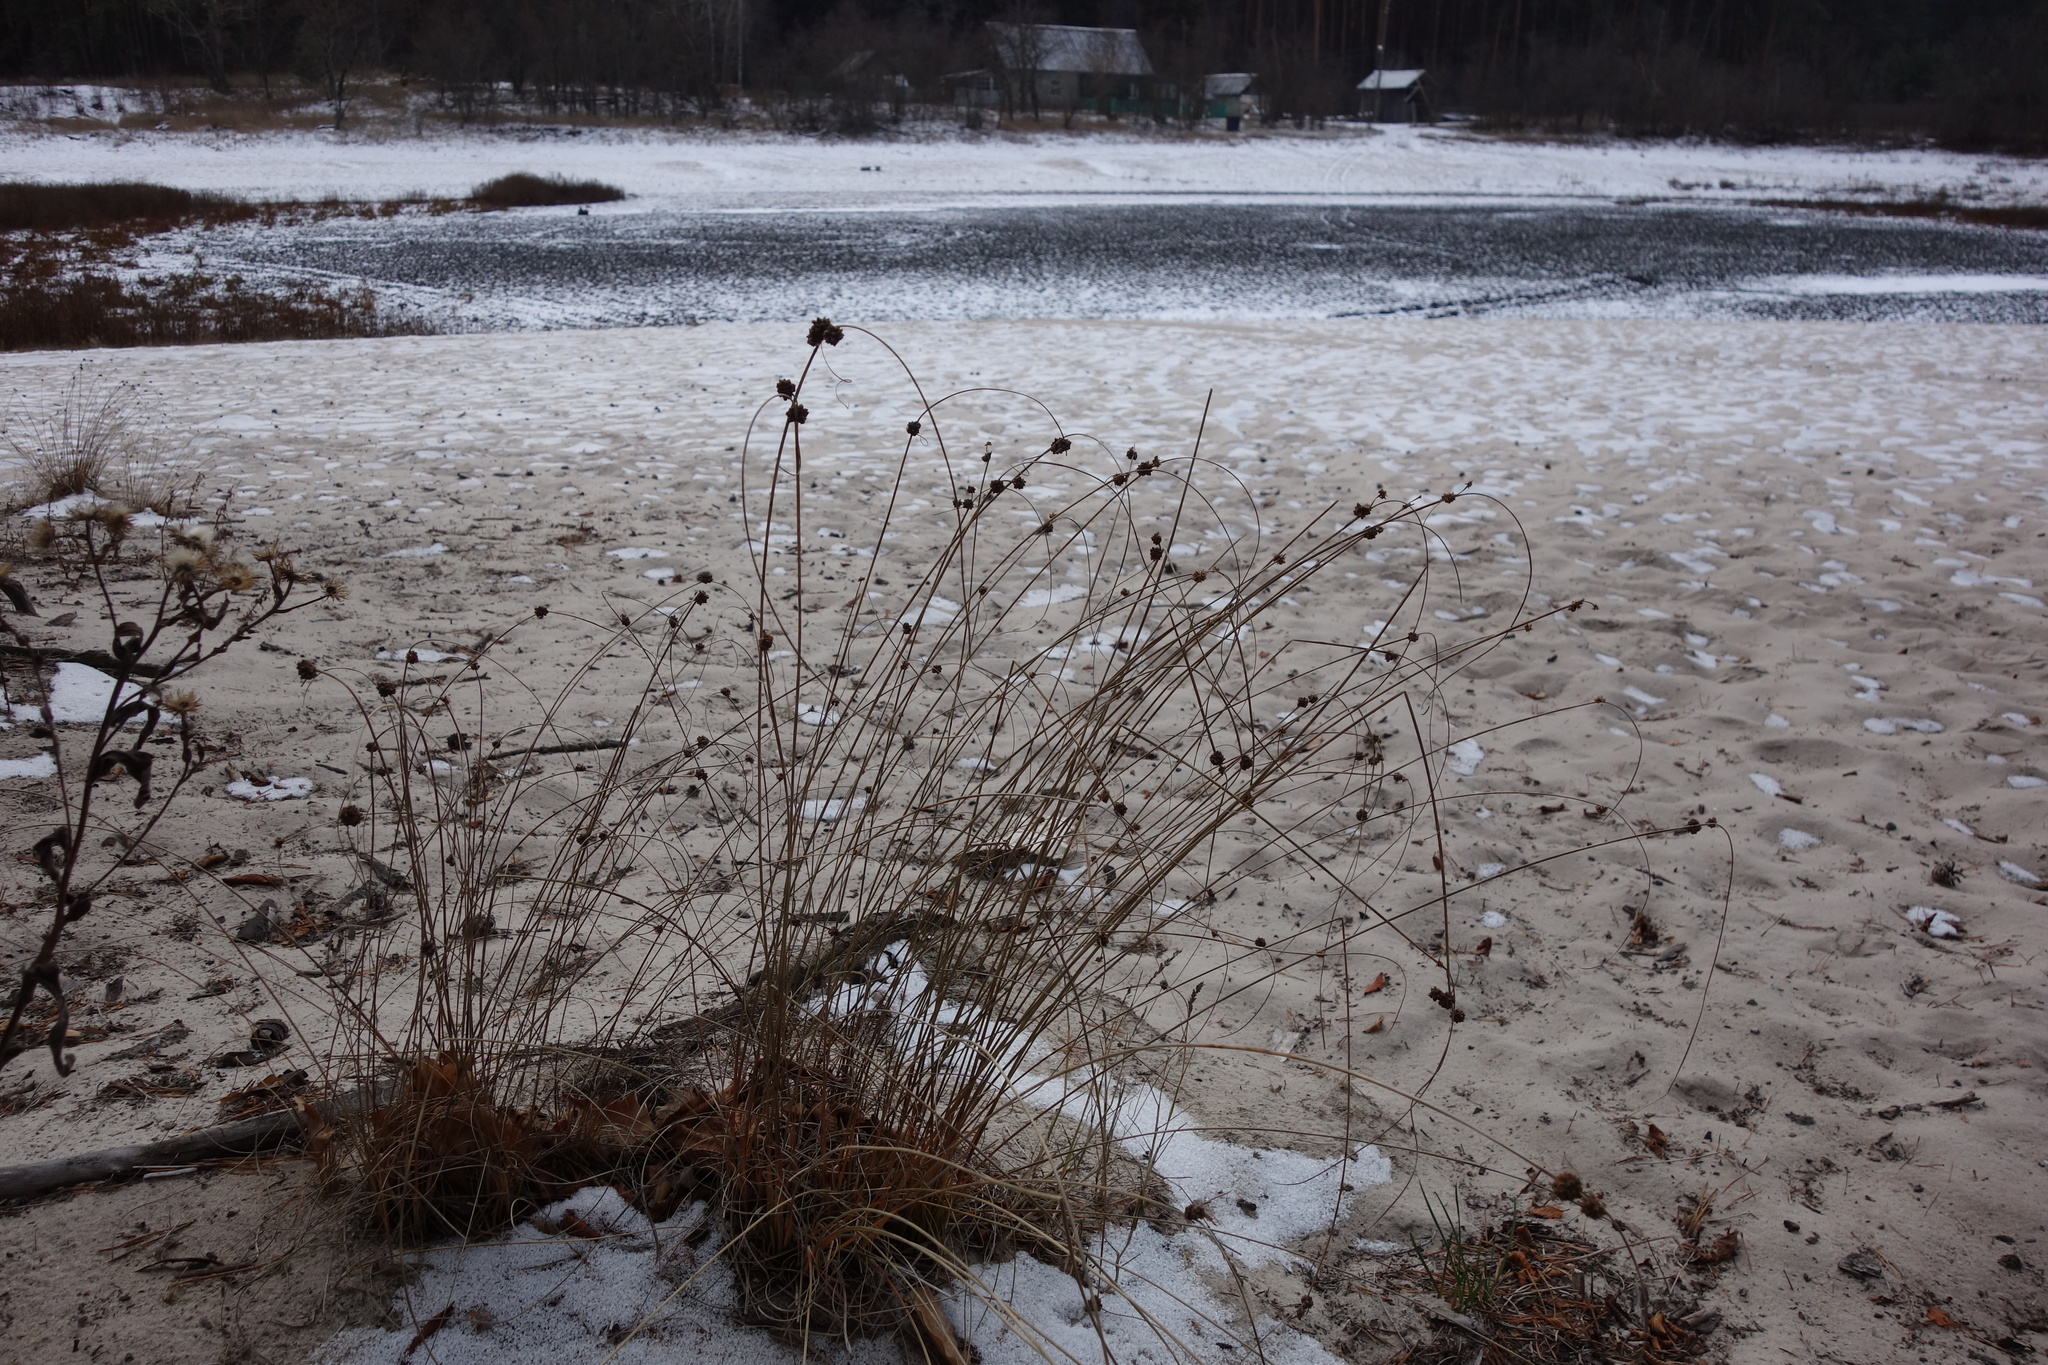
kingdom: Plantae
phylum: Tracheophyta
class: Liliopsida
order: Poales
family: Cyperaceae
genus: Scirpoides
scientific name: Scirpoides holoschoenus
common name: Round-headed club-rush
